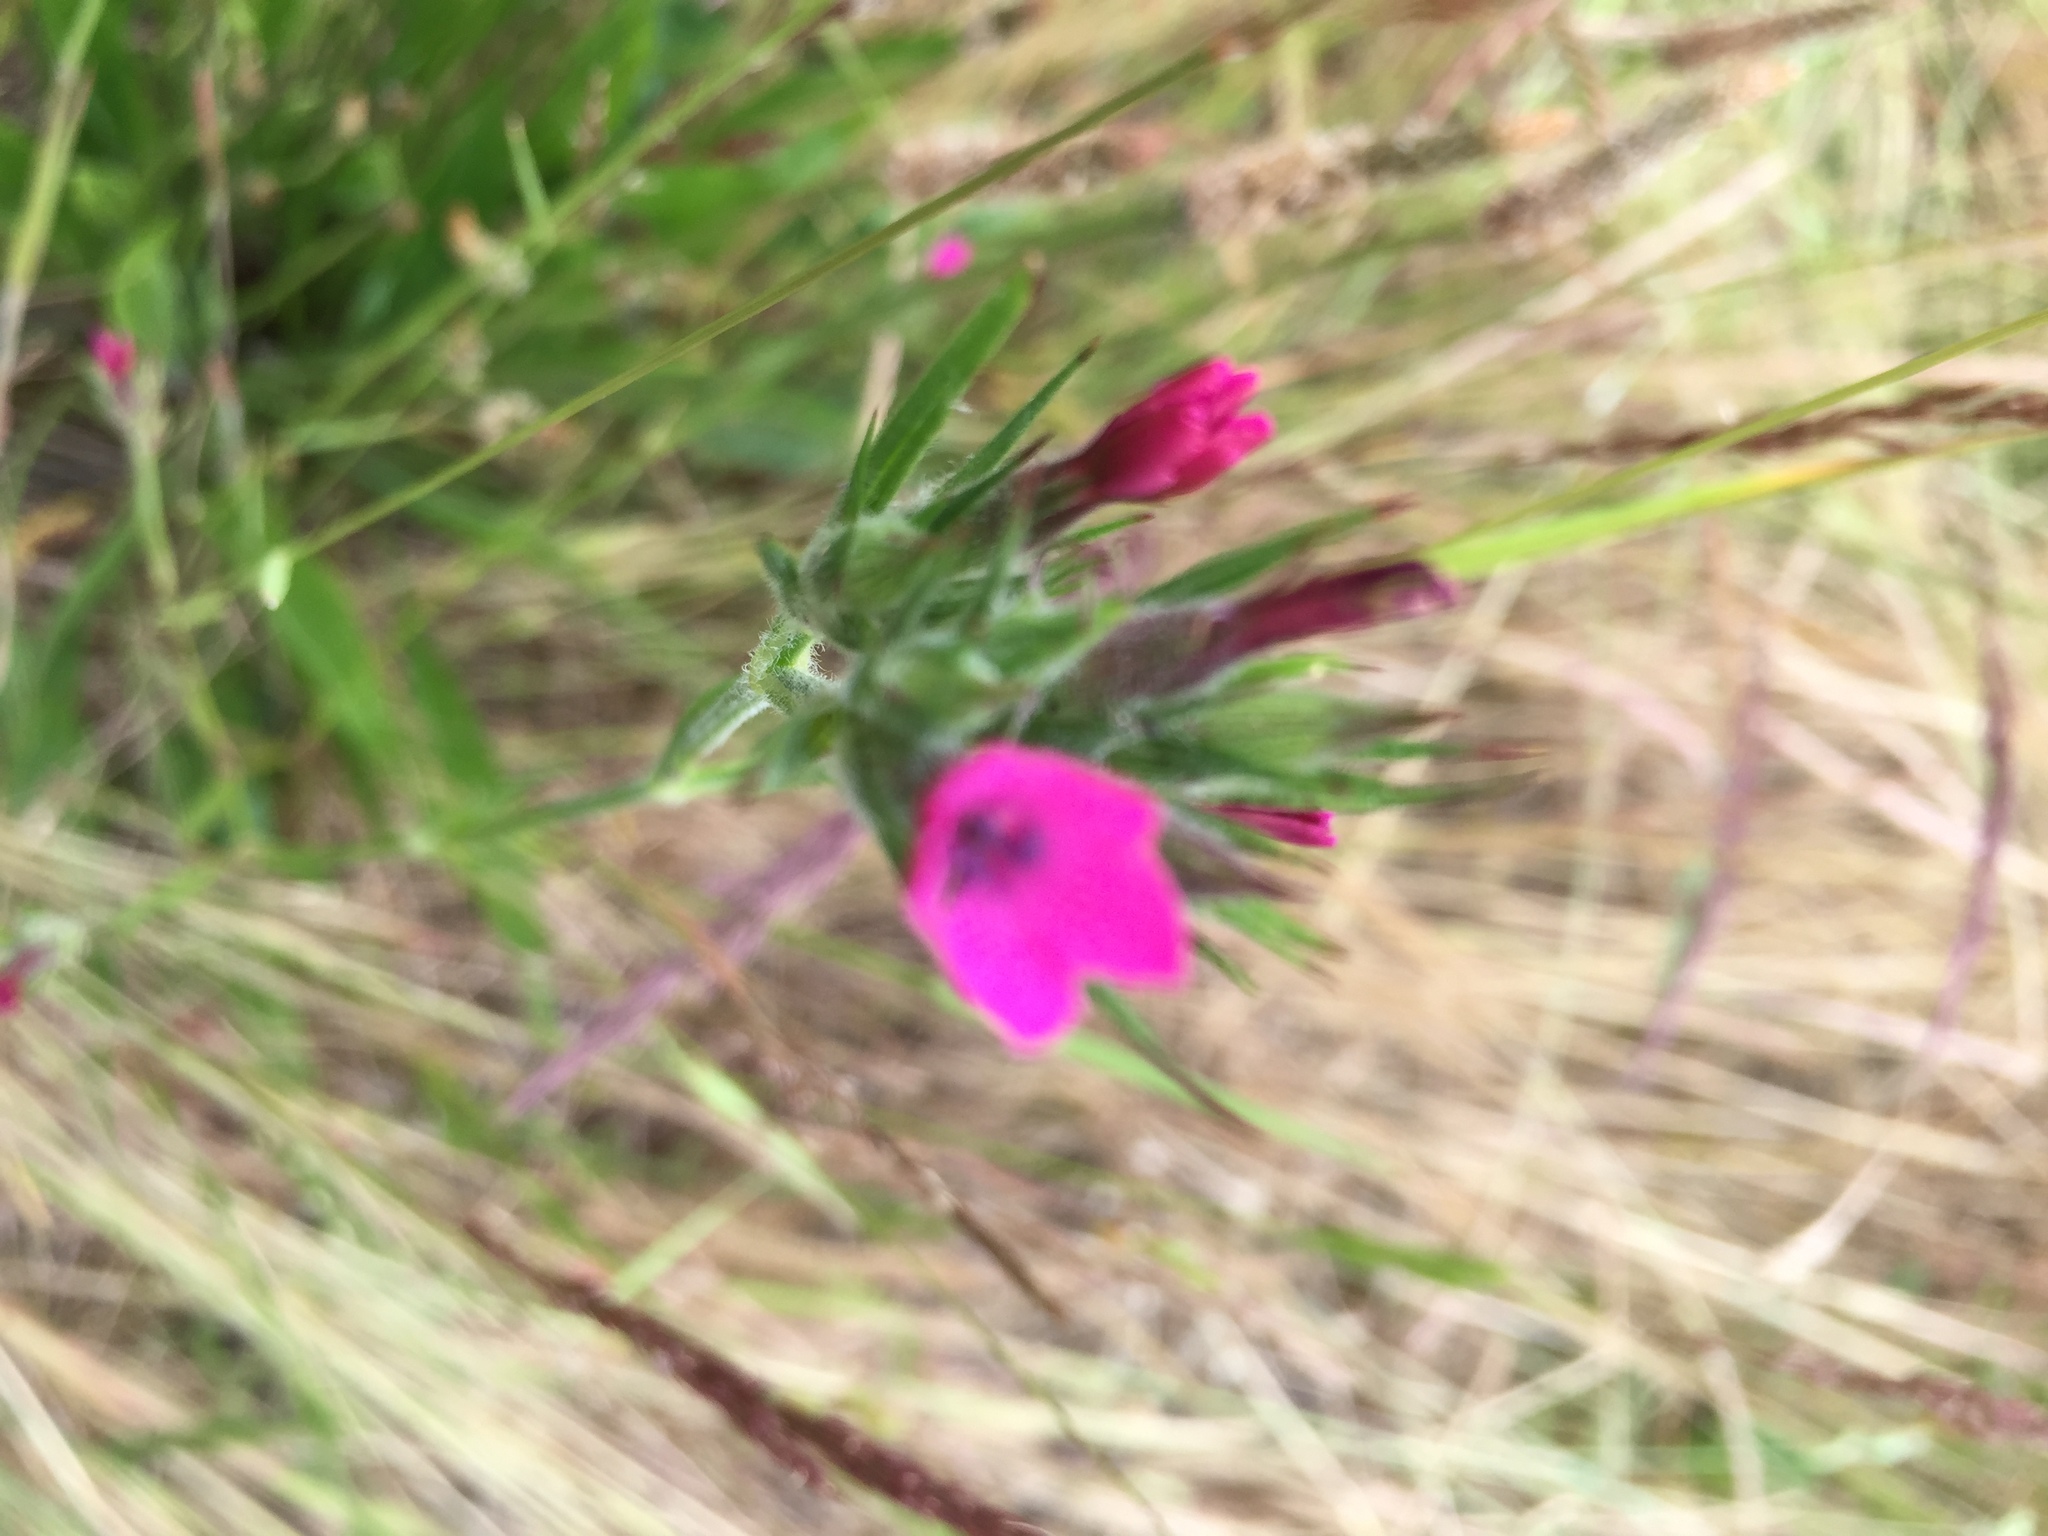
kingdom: Plantae
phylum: Tracheophyta
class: Magnoliopsida
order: Caryophyllales
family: Caryophyllaceae
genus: Dianthus
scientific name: Dianthus armeria
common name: Deptford pink
